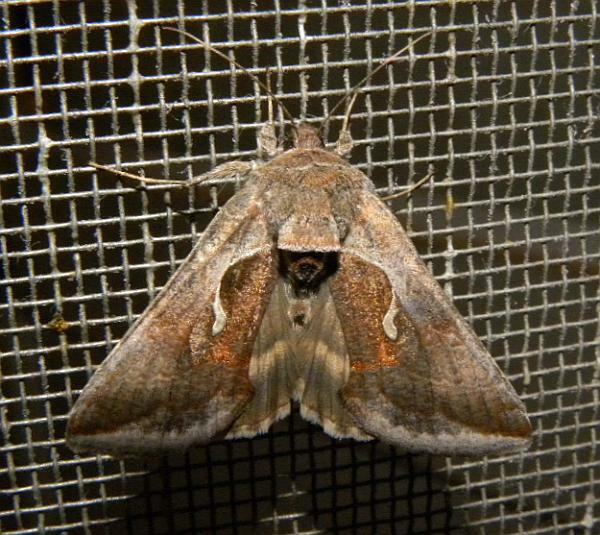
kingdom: Animalia
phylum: Arthropoda
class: Insecta
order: Lepidoptera
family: Noctuidae
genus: Anagrapha
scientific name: Anagrapha falcifera
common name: Celery looper
